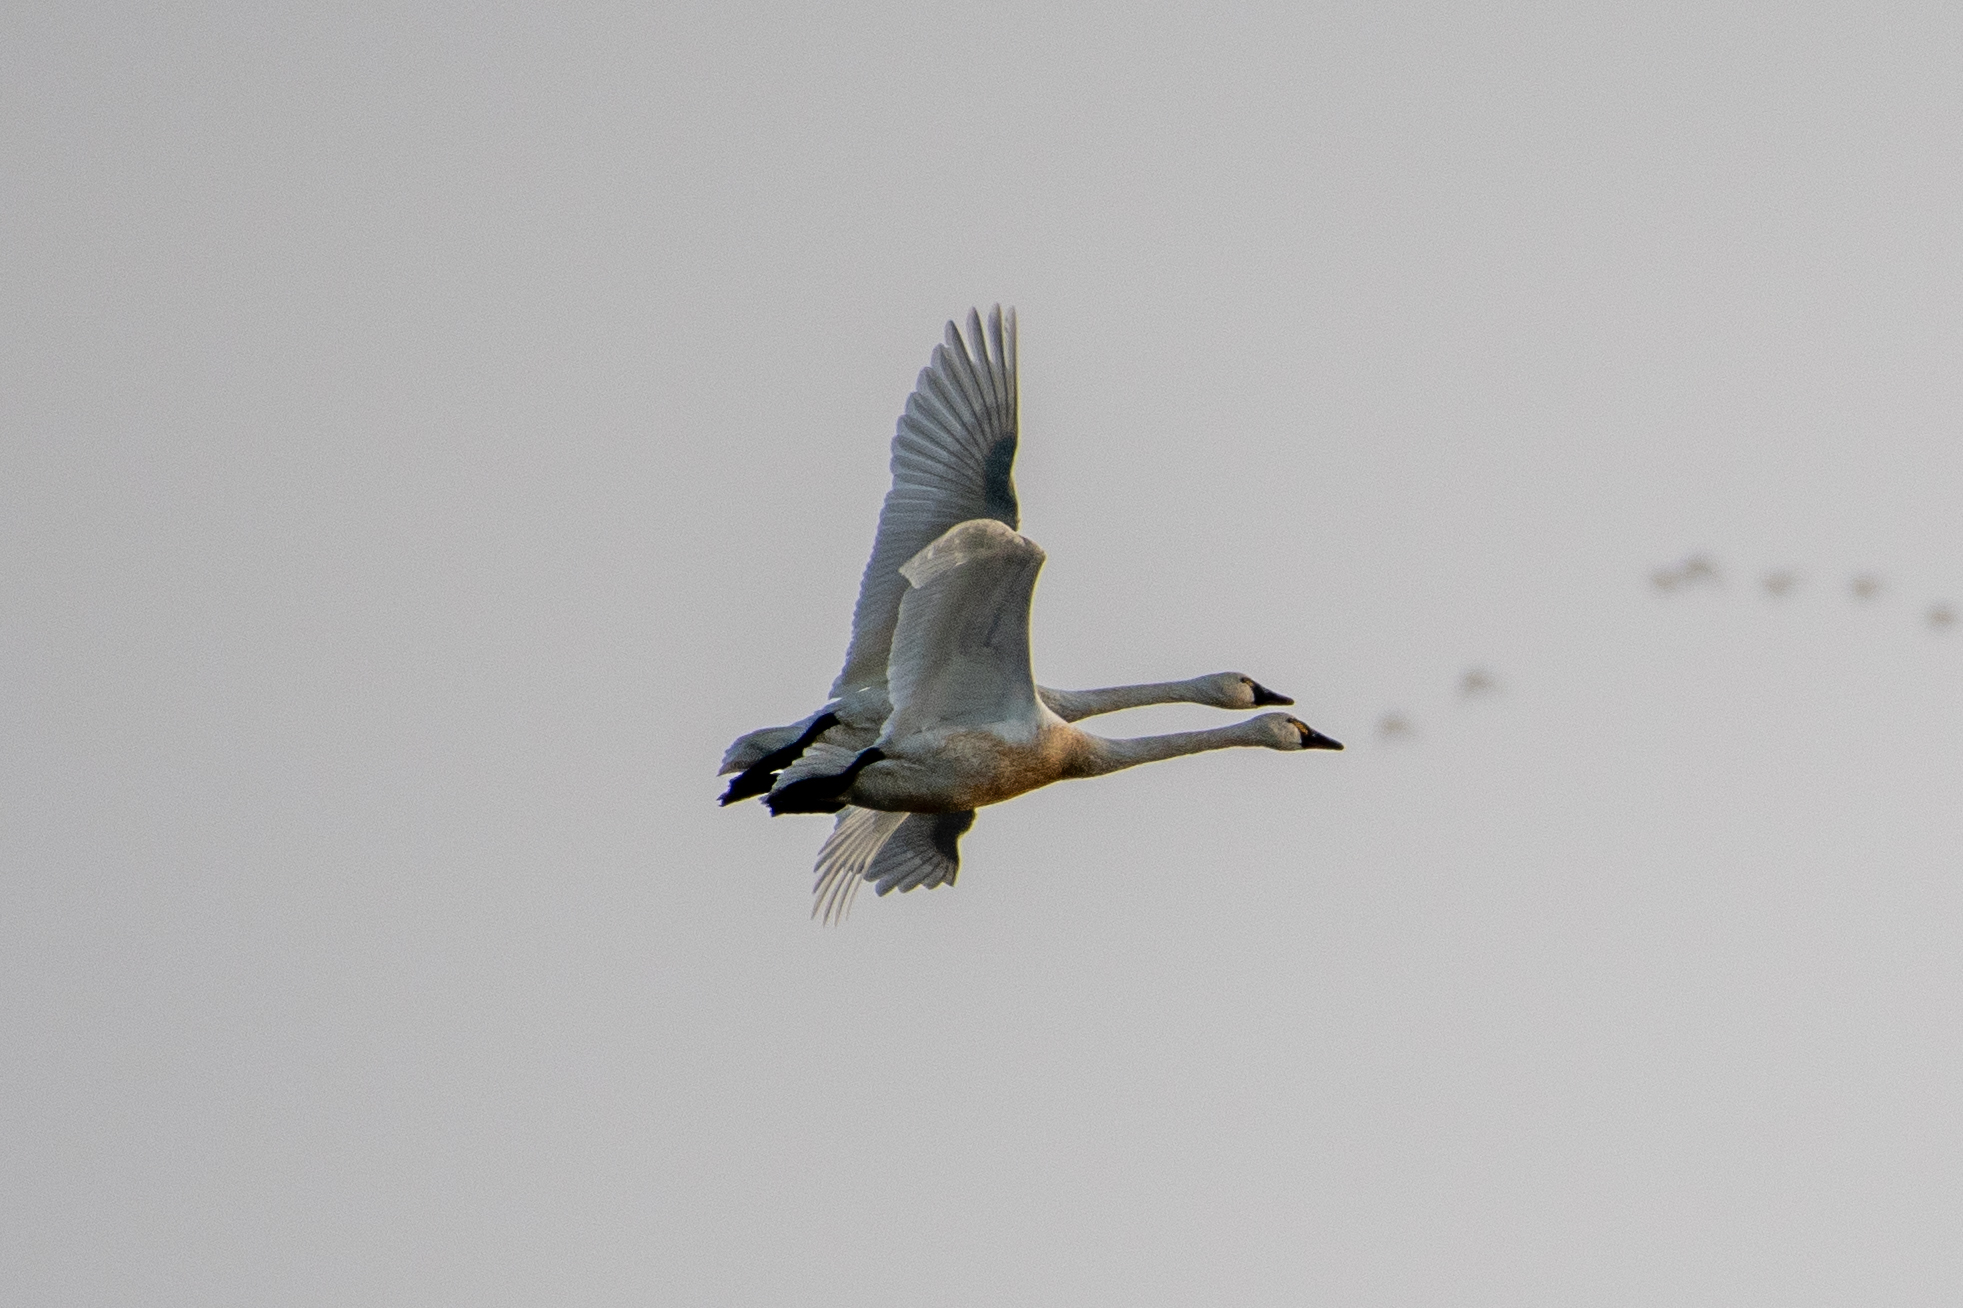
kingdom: Animalia
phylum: Chordata
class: Aves
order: Anseriformes
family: Anatidae
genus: Cygnus
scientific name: Cygnus columbianus
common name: Tundra swan
